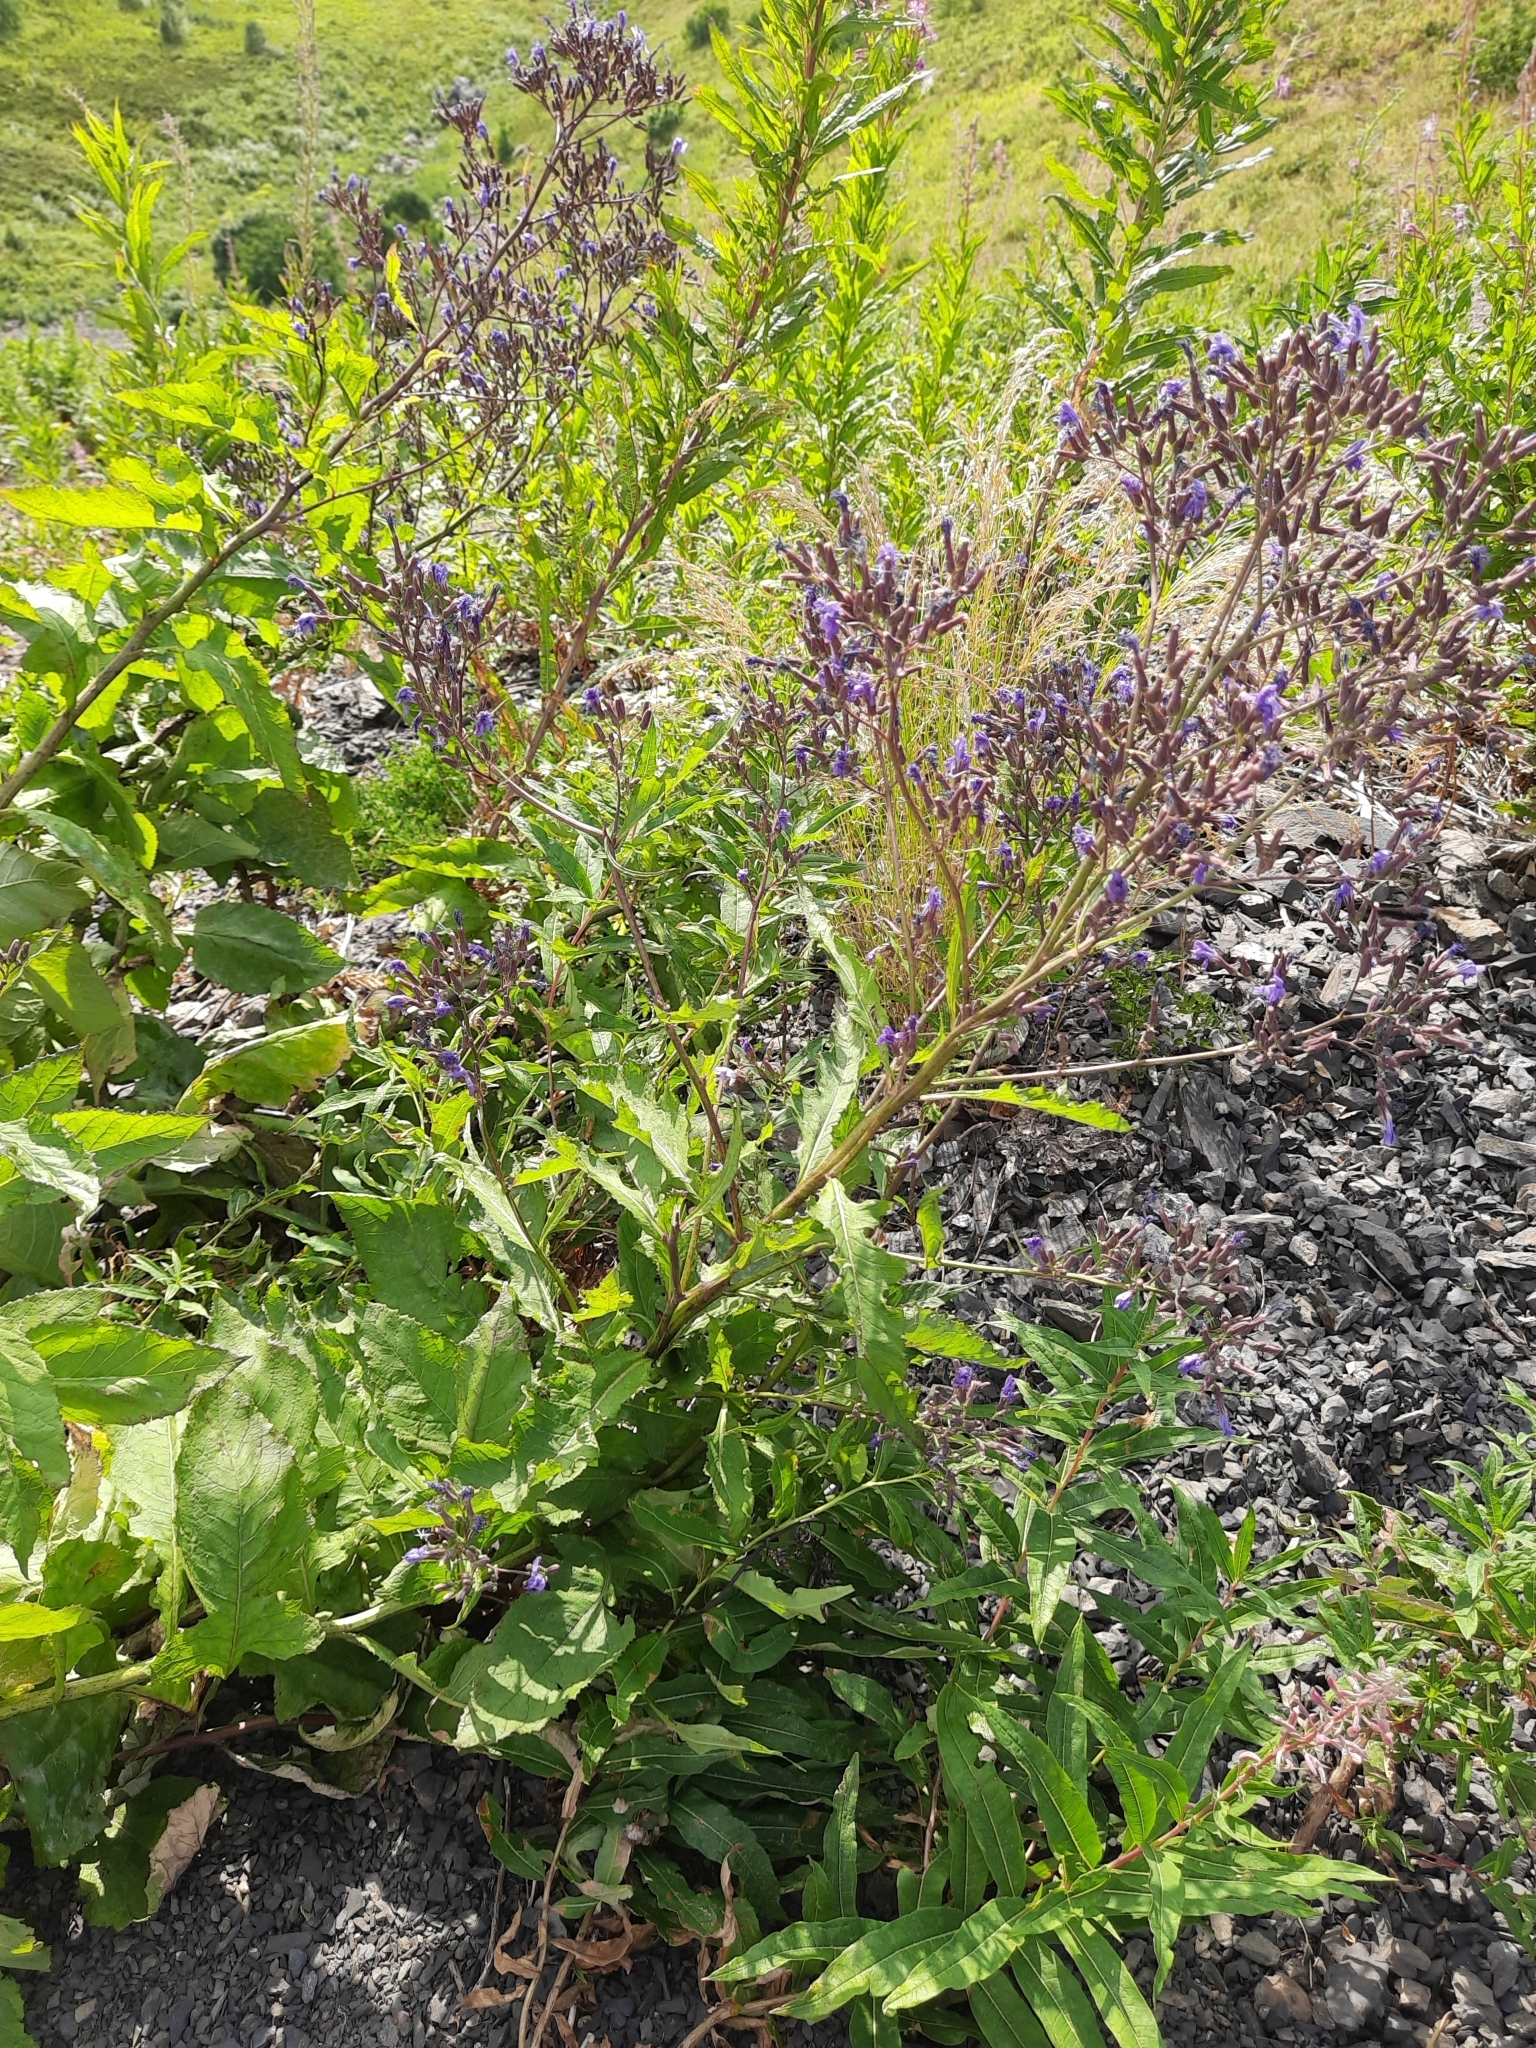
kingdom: Plantae
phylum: Tracheophyta
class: Magnoliopsida
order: Asterales
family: Asteraceae
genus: Cicerbita
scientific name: Cicerbita prenanthoides
